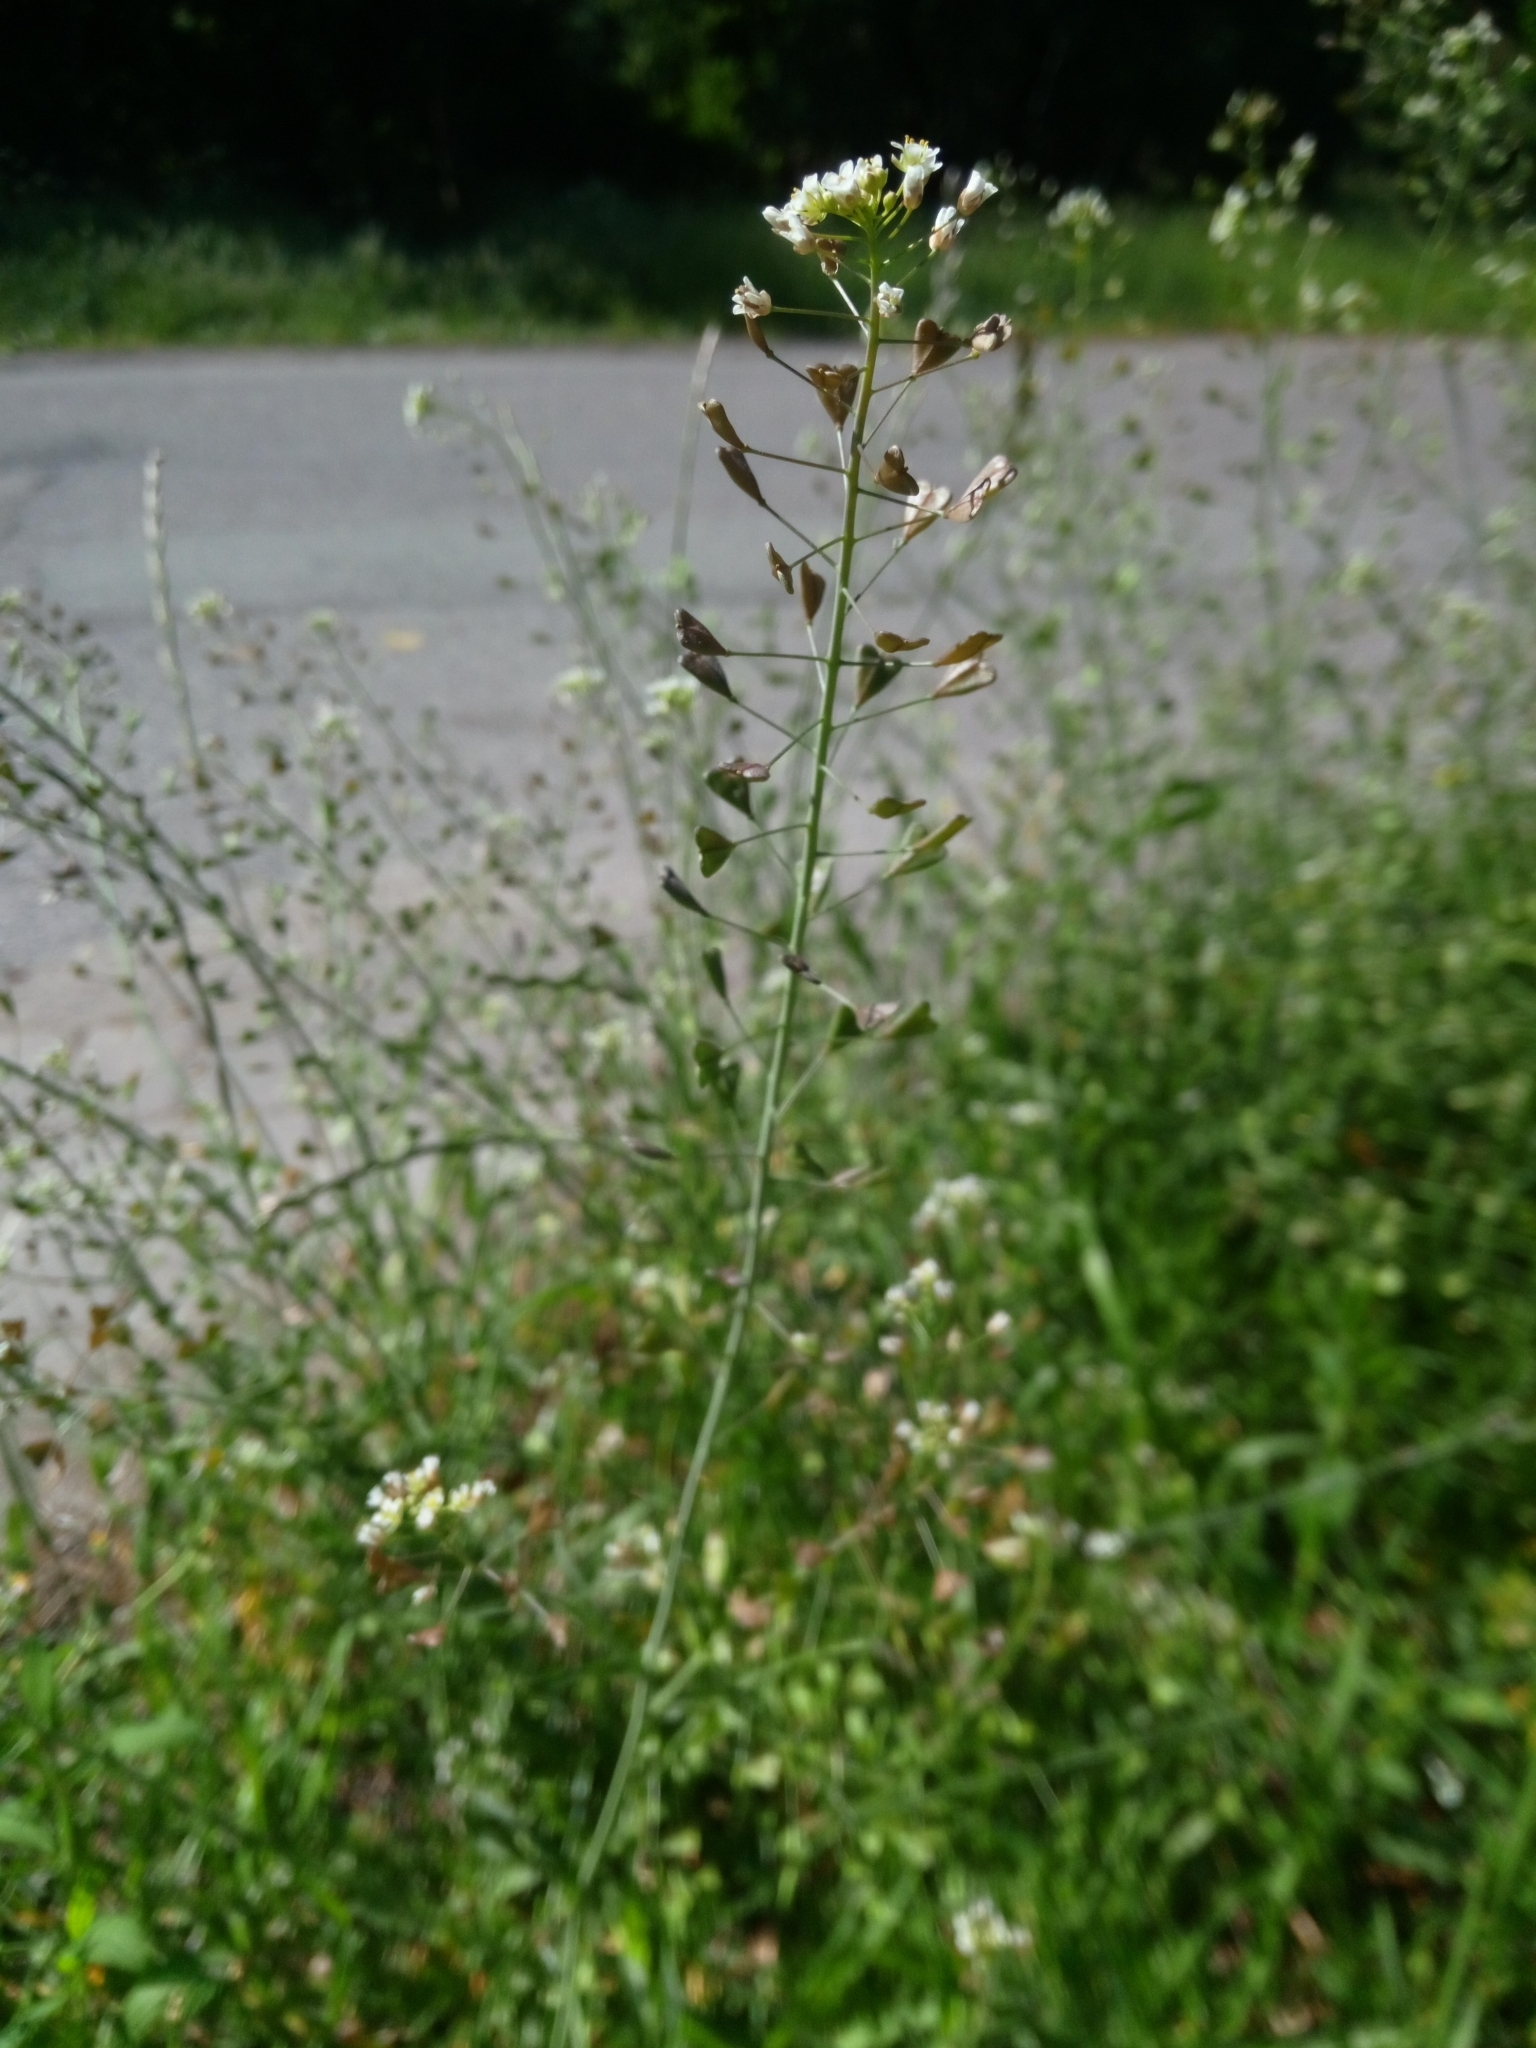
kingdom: Plantae
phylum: Tracheophyta
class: Magnoliopsida
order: Brassicales
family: Brassicaceae
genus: Capsella
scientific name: Capsella bursa-pastoris
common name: Shepherd's purse
